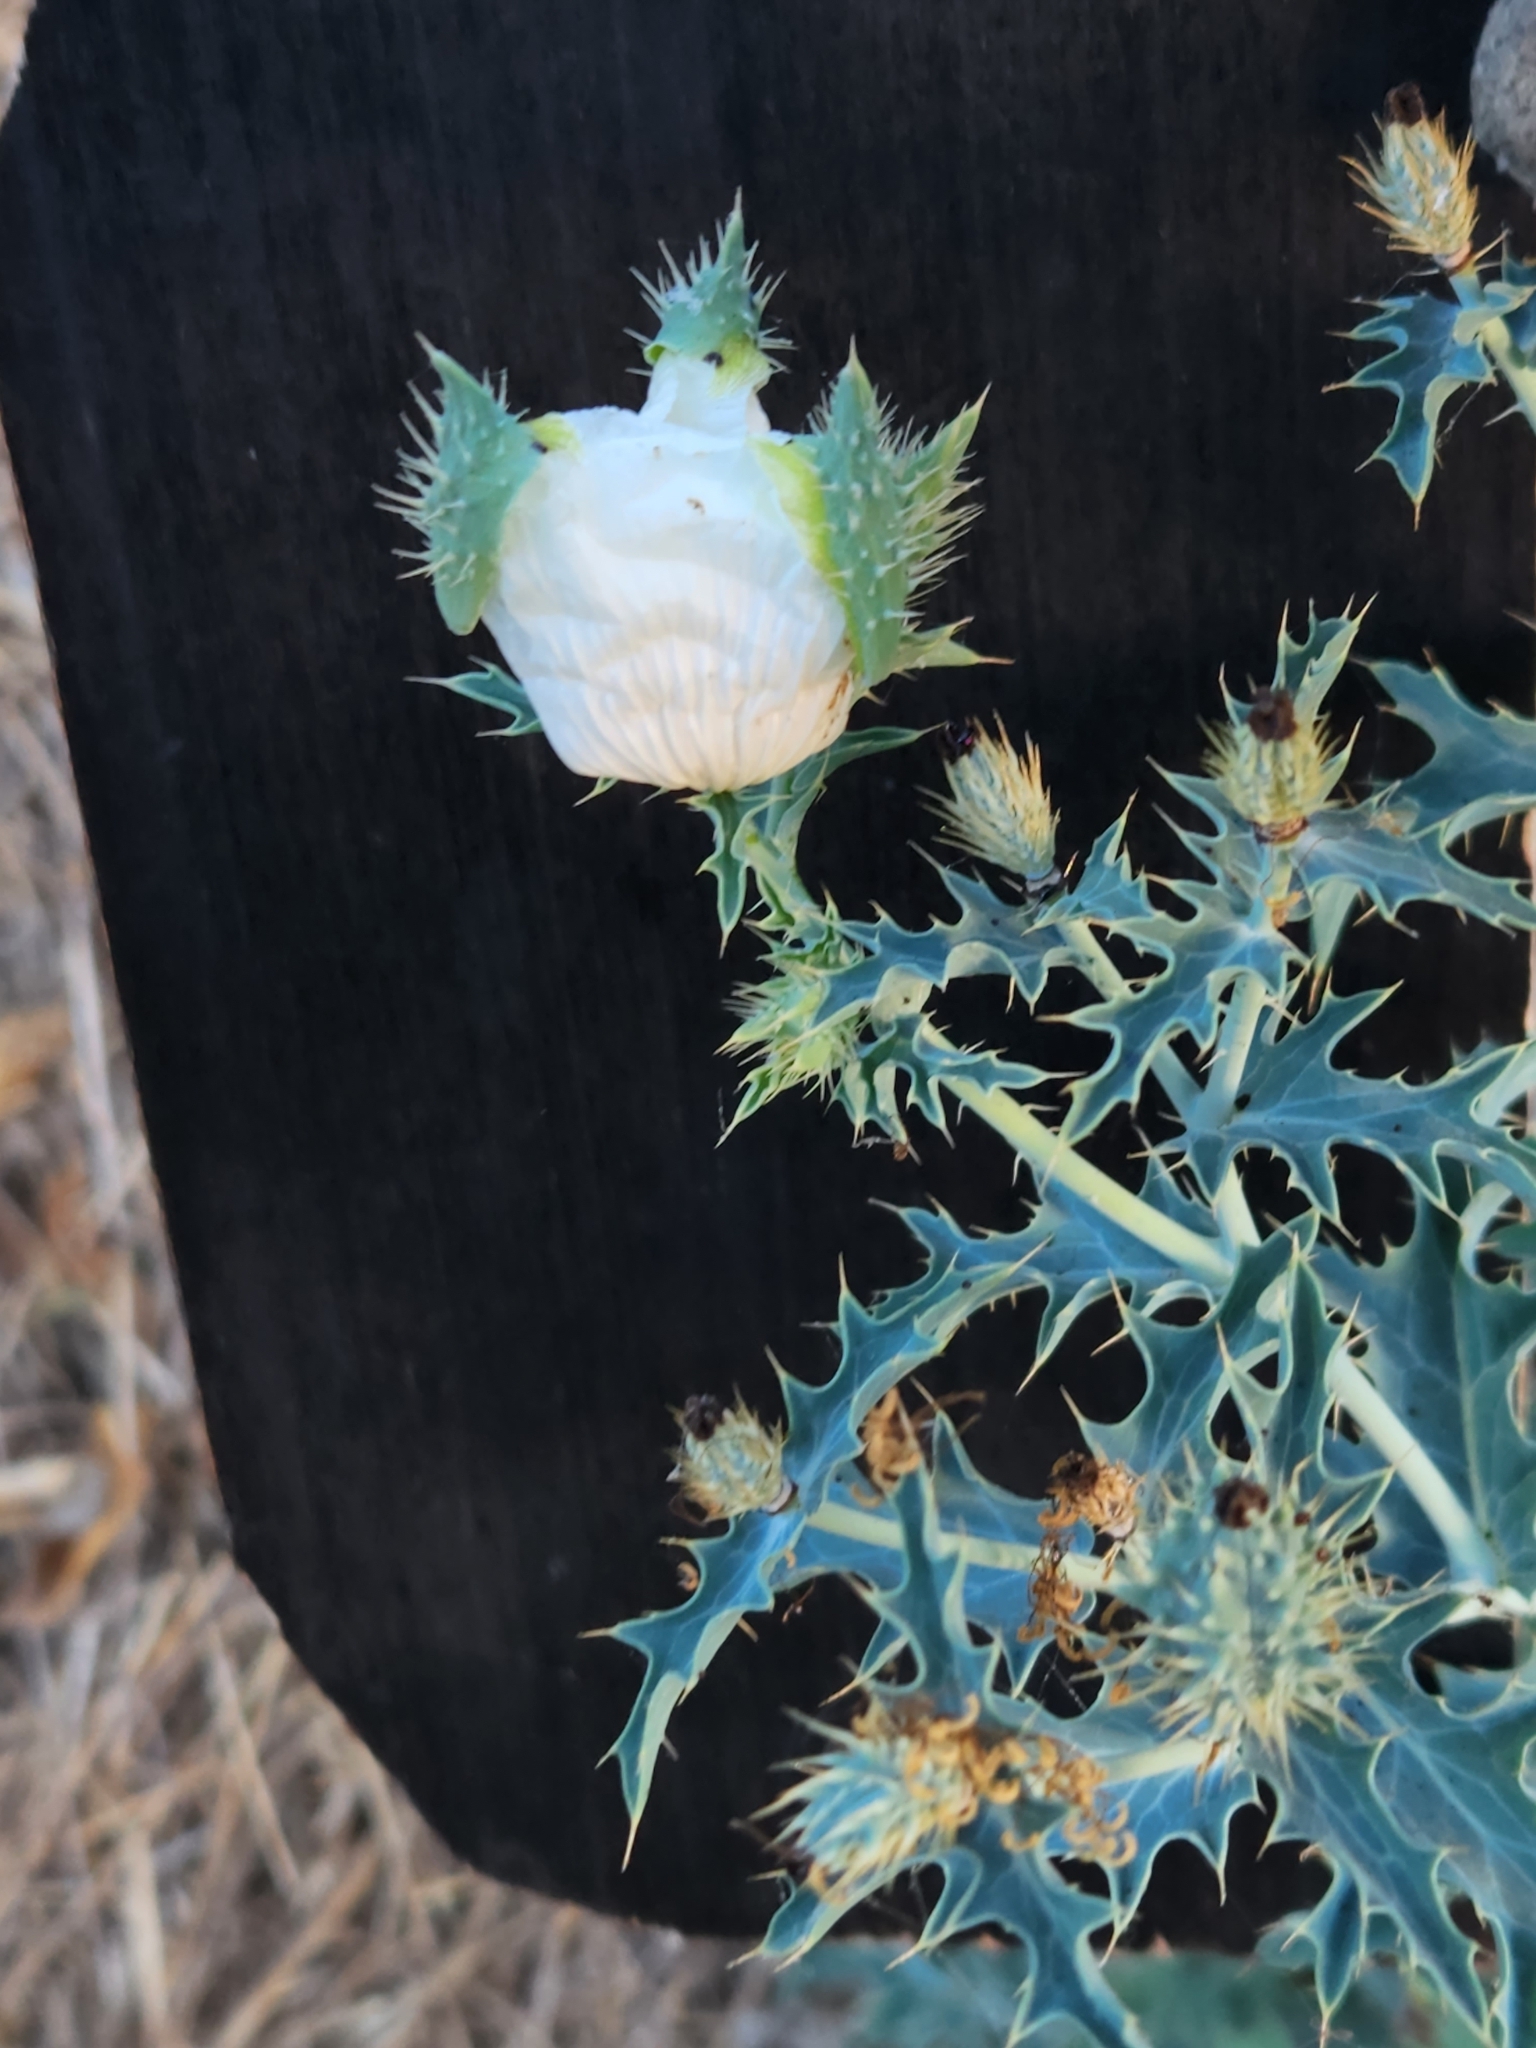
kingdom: Plantae
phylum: Tracheophyta
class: Magnoliopsida
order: Ranunculales
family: Papaveraceae
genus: Argemone
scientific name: Argemone albiflora
